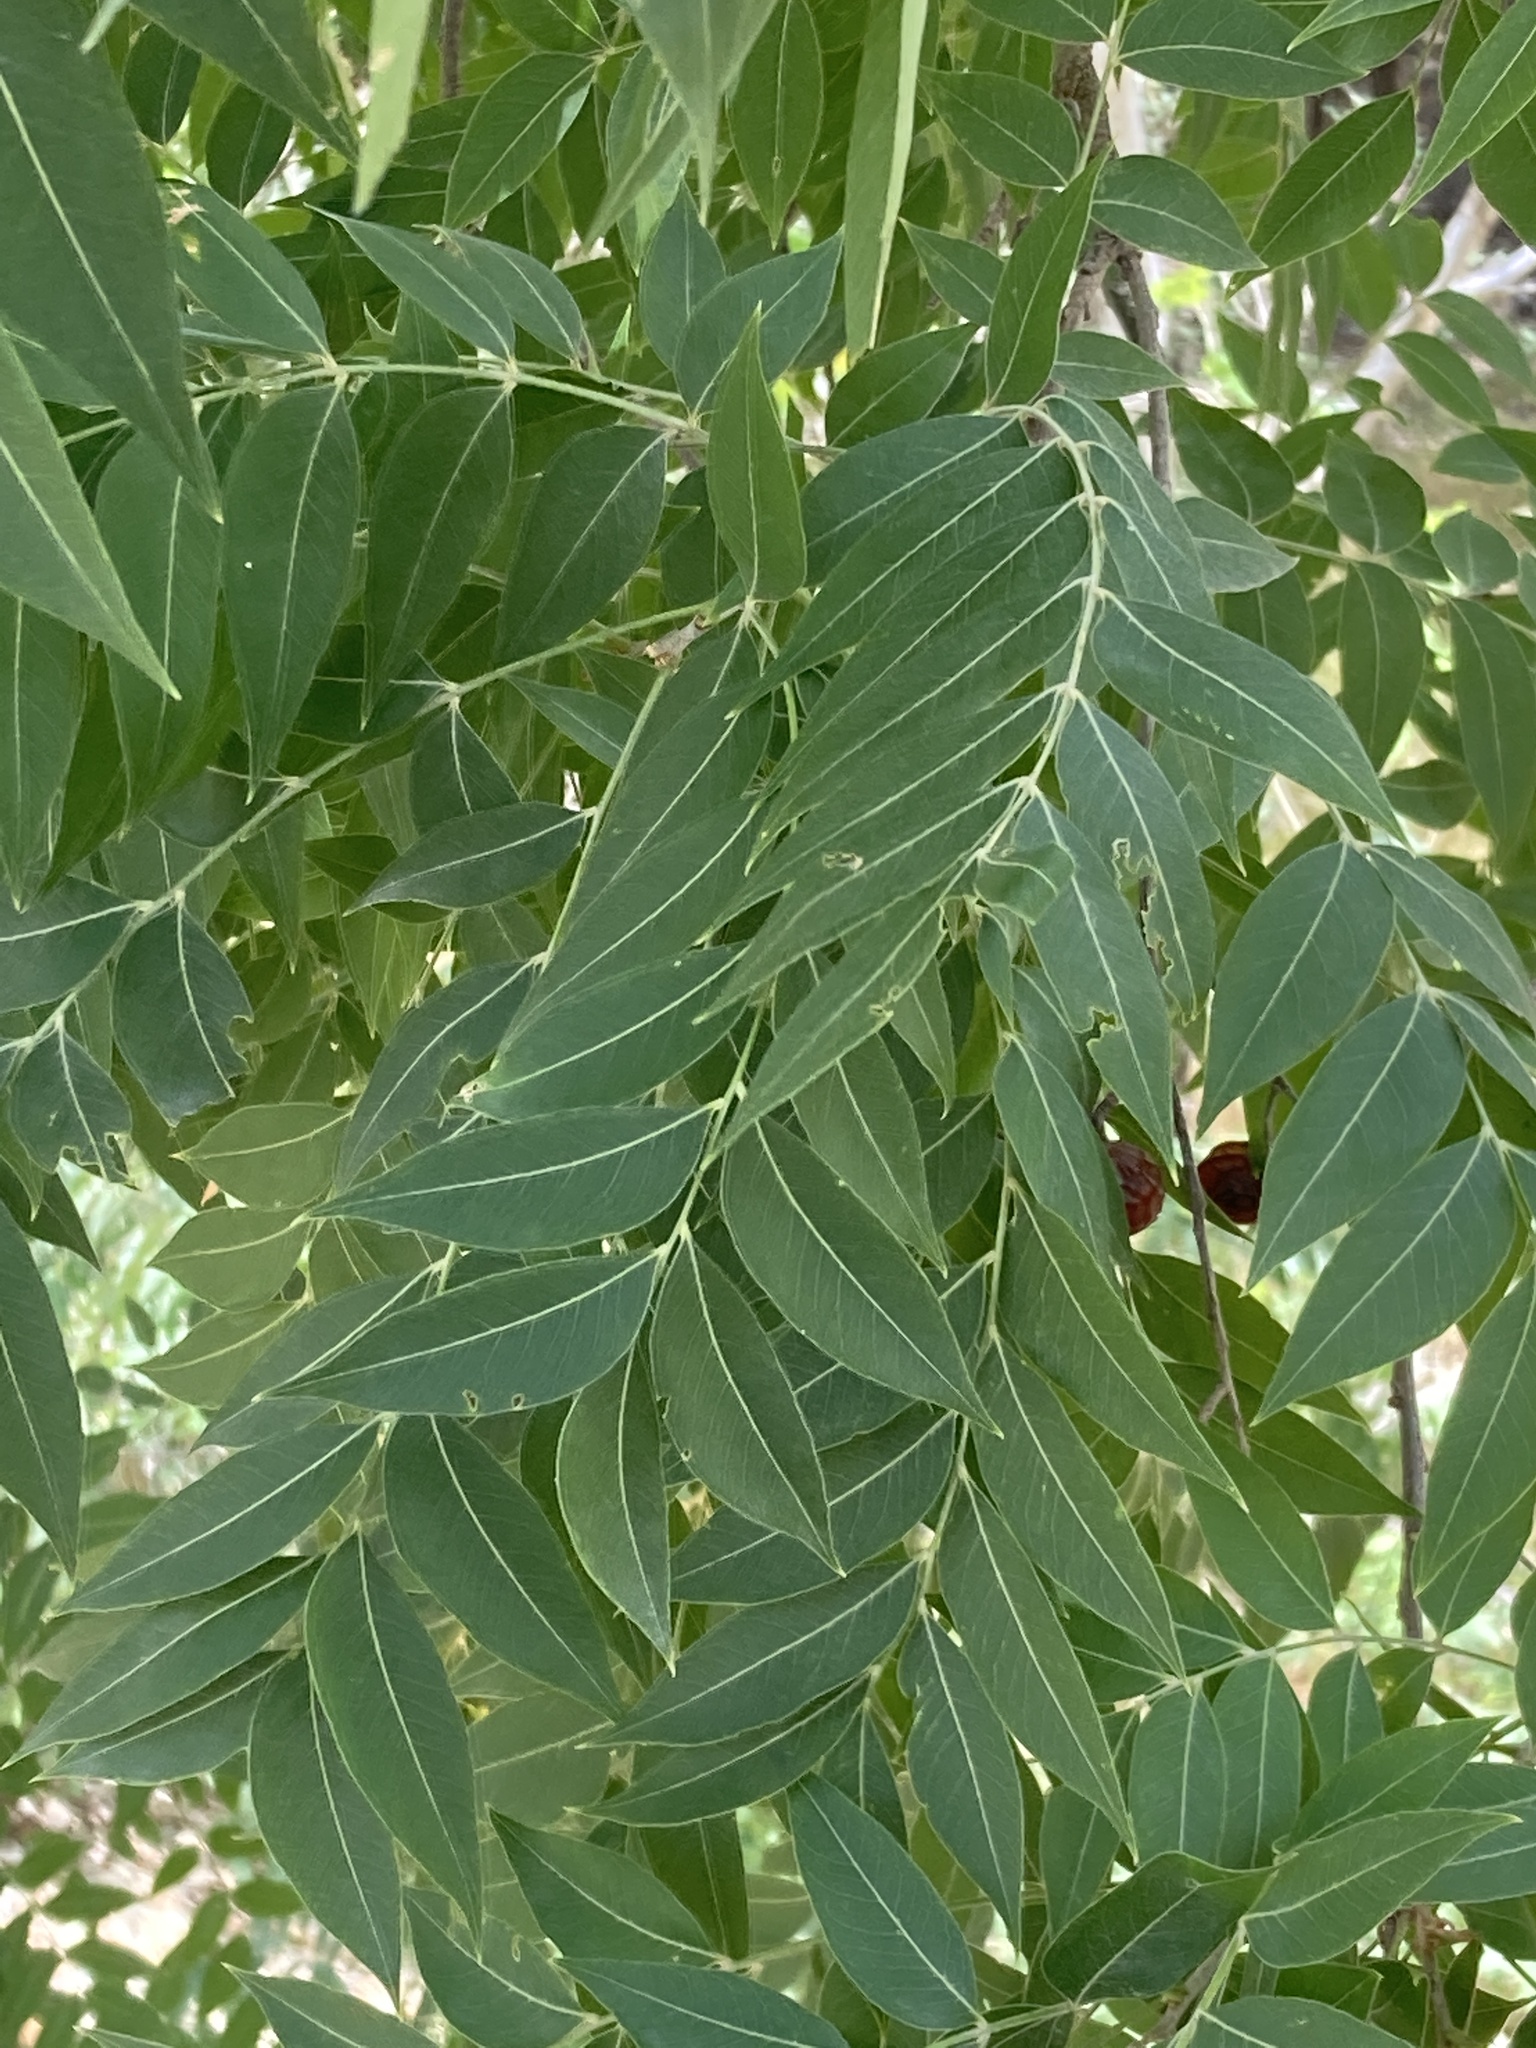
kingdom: Plantae
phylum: Tracheophyta
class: Magnoliopsida
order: Sapindales
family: Sapindaceae
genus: Sapindus
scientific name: Sapindus drummondii
